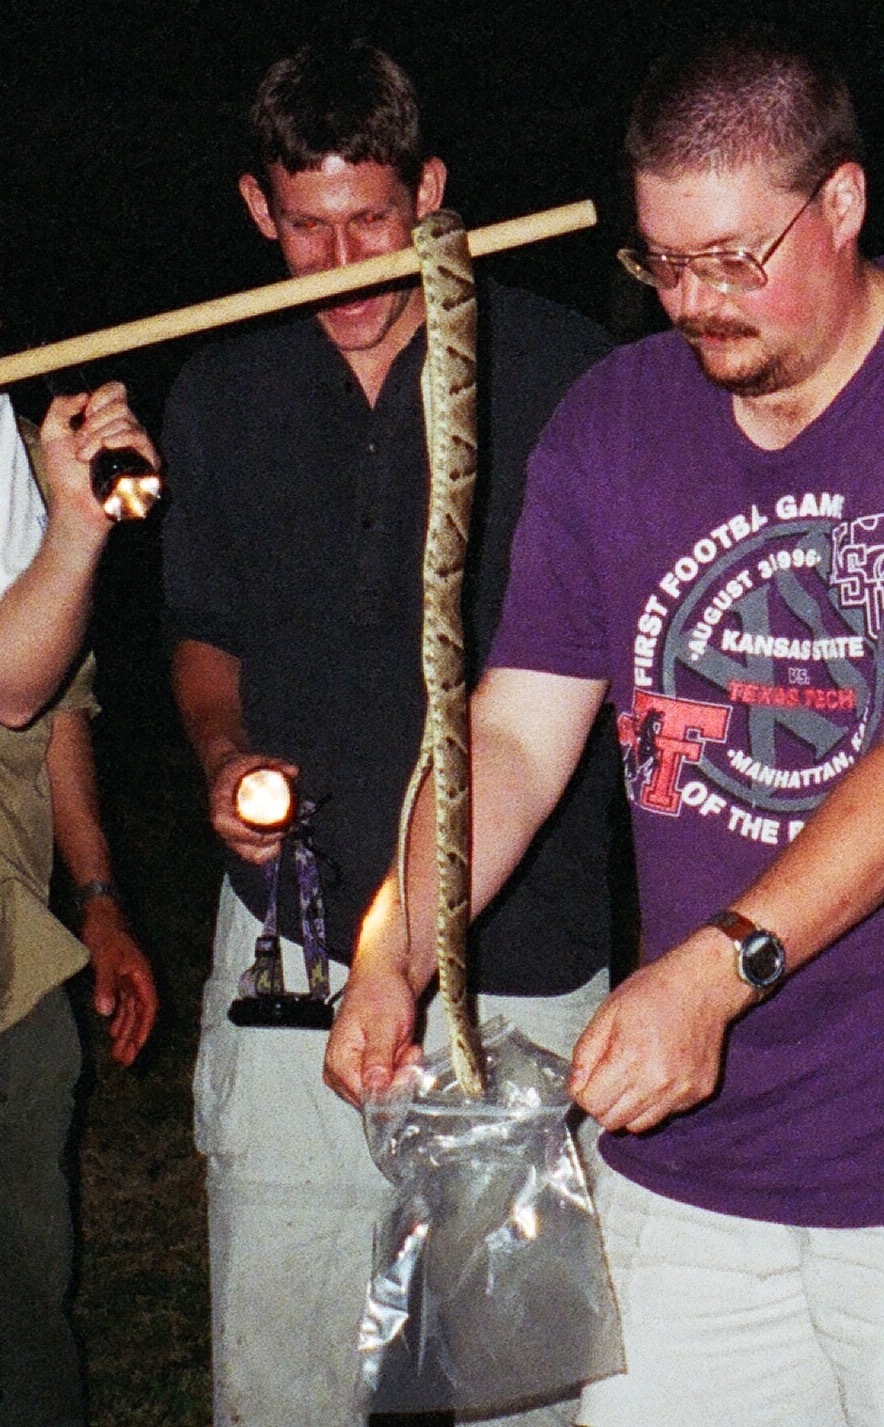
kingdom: Animalia
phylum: Chordata
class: Squamata
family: Viperidae
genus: Bothrops
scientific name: Bothrops moojeni
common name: Brazilian lancehead
